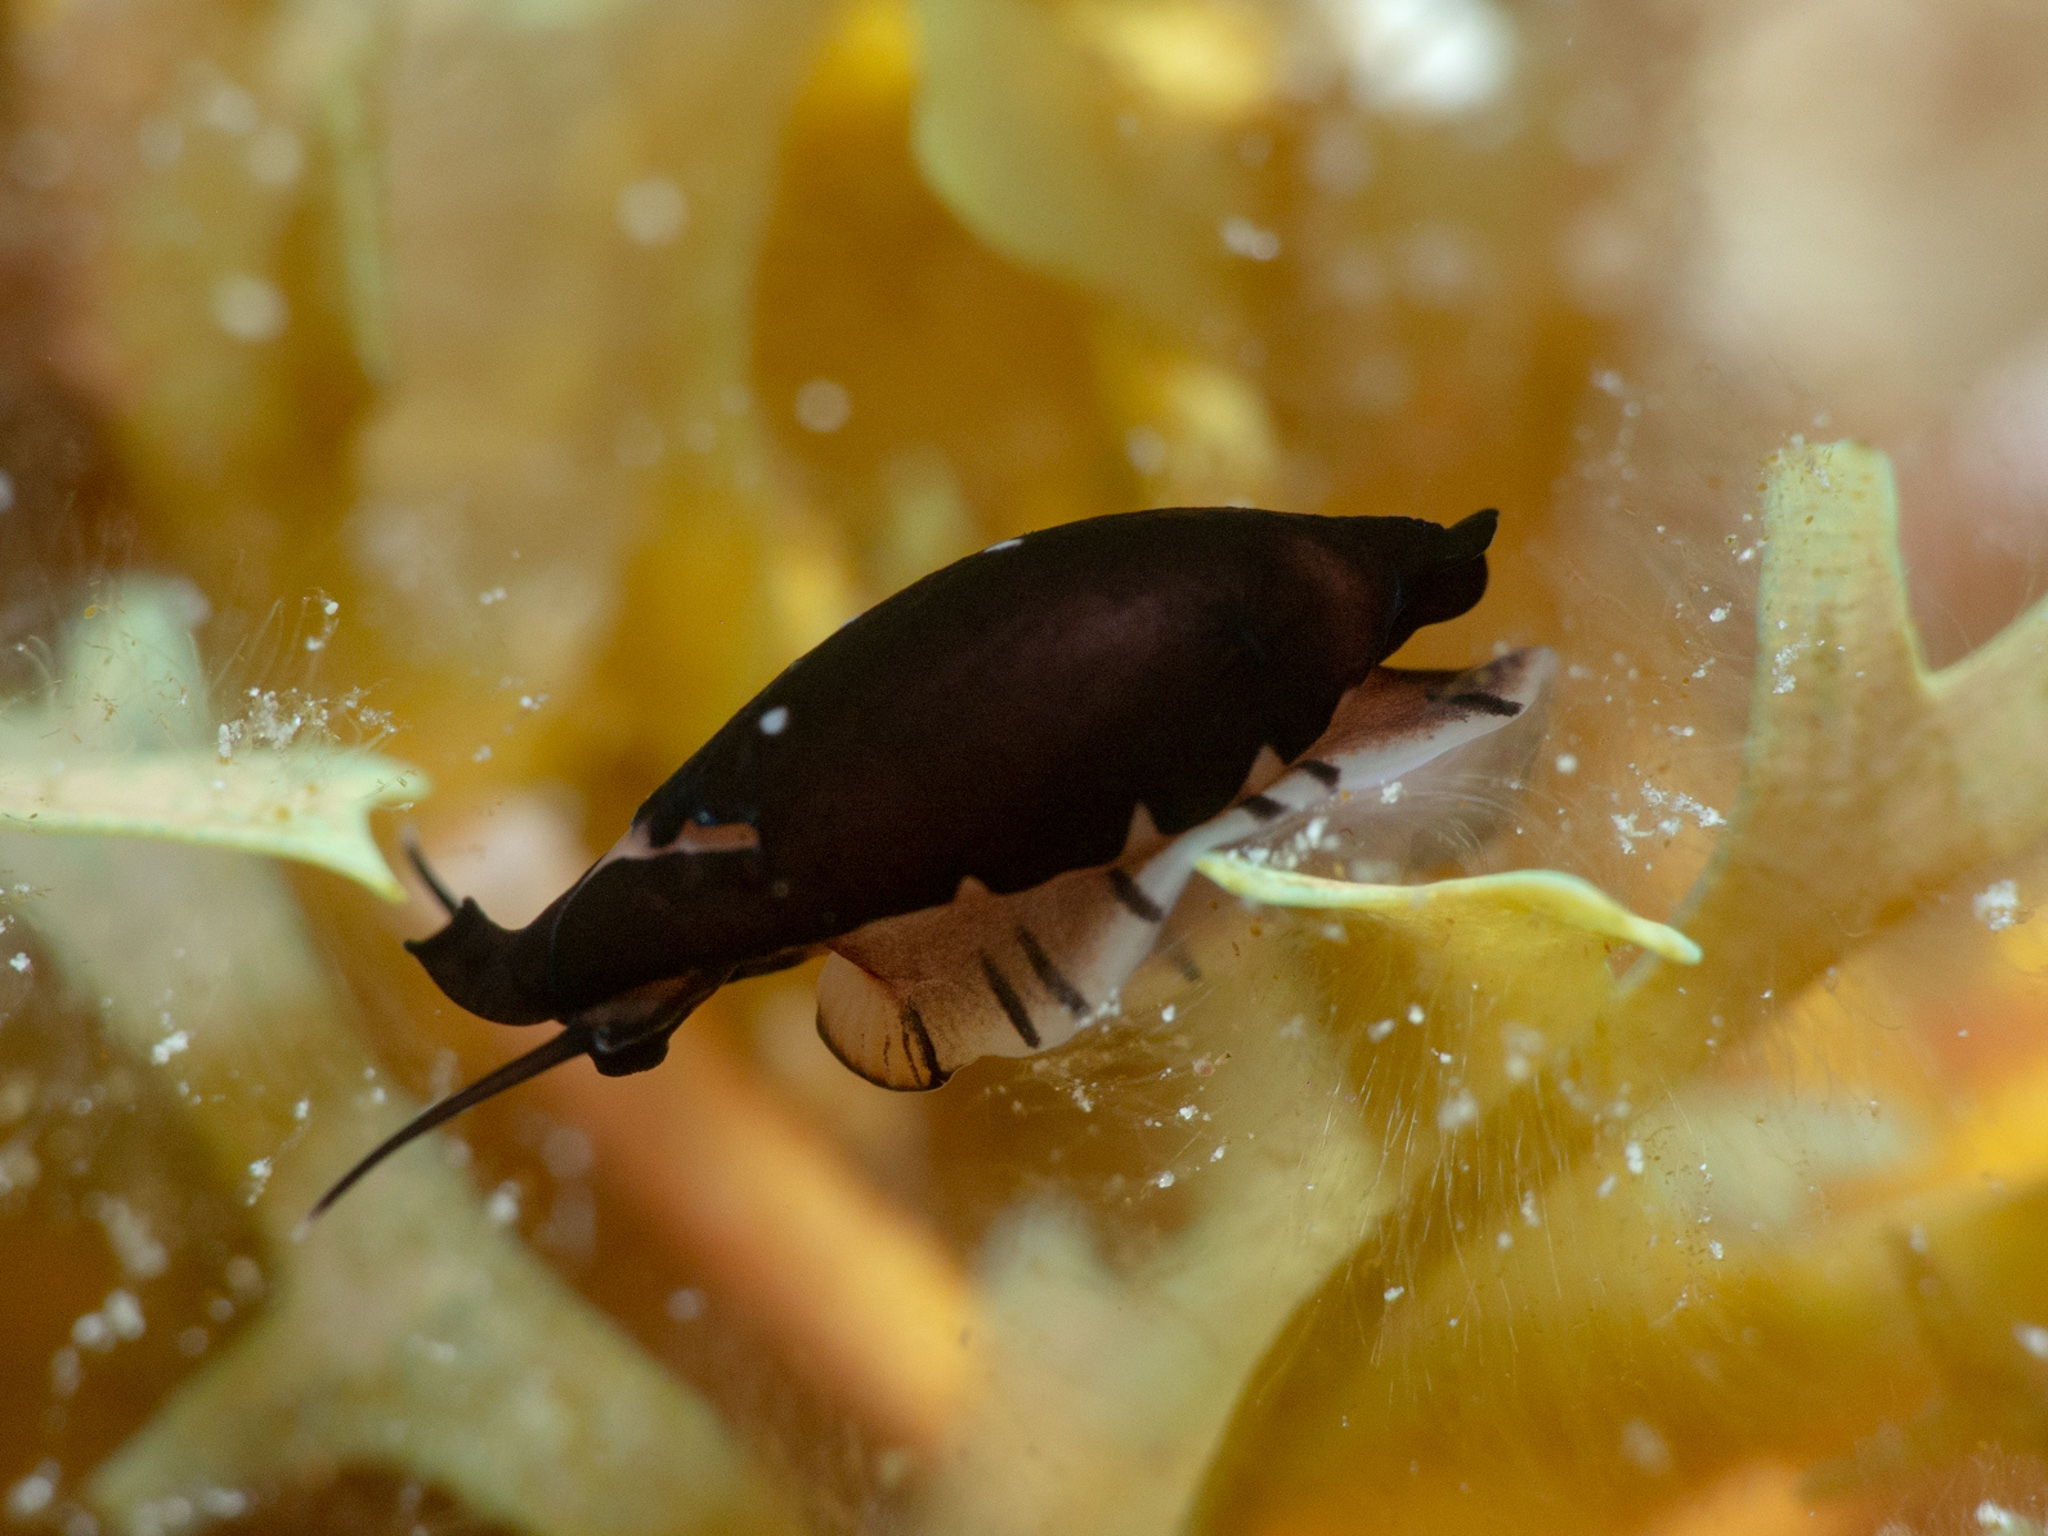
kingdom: Animalia
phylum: Mollusca
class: Gastropoda
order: Littorinimorpha
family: Ovulidae
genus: Cyphoma
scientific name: Cyphoma cassidyae
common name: Black morph cyphoma
